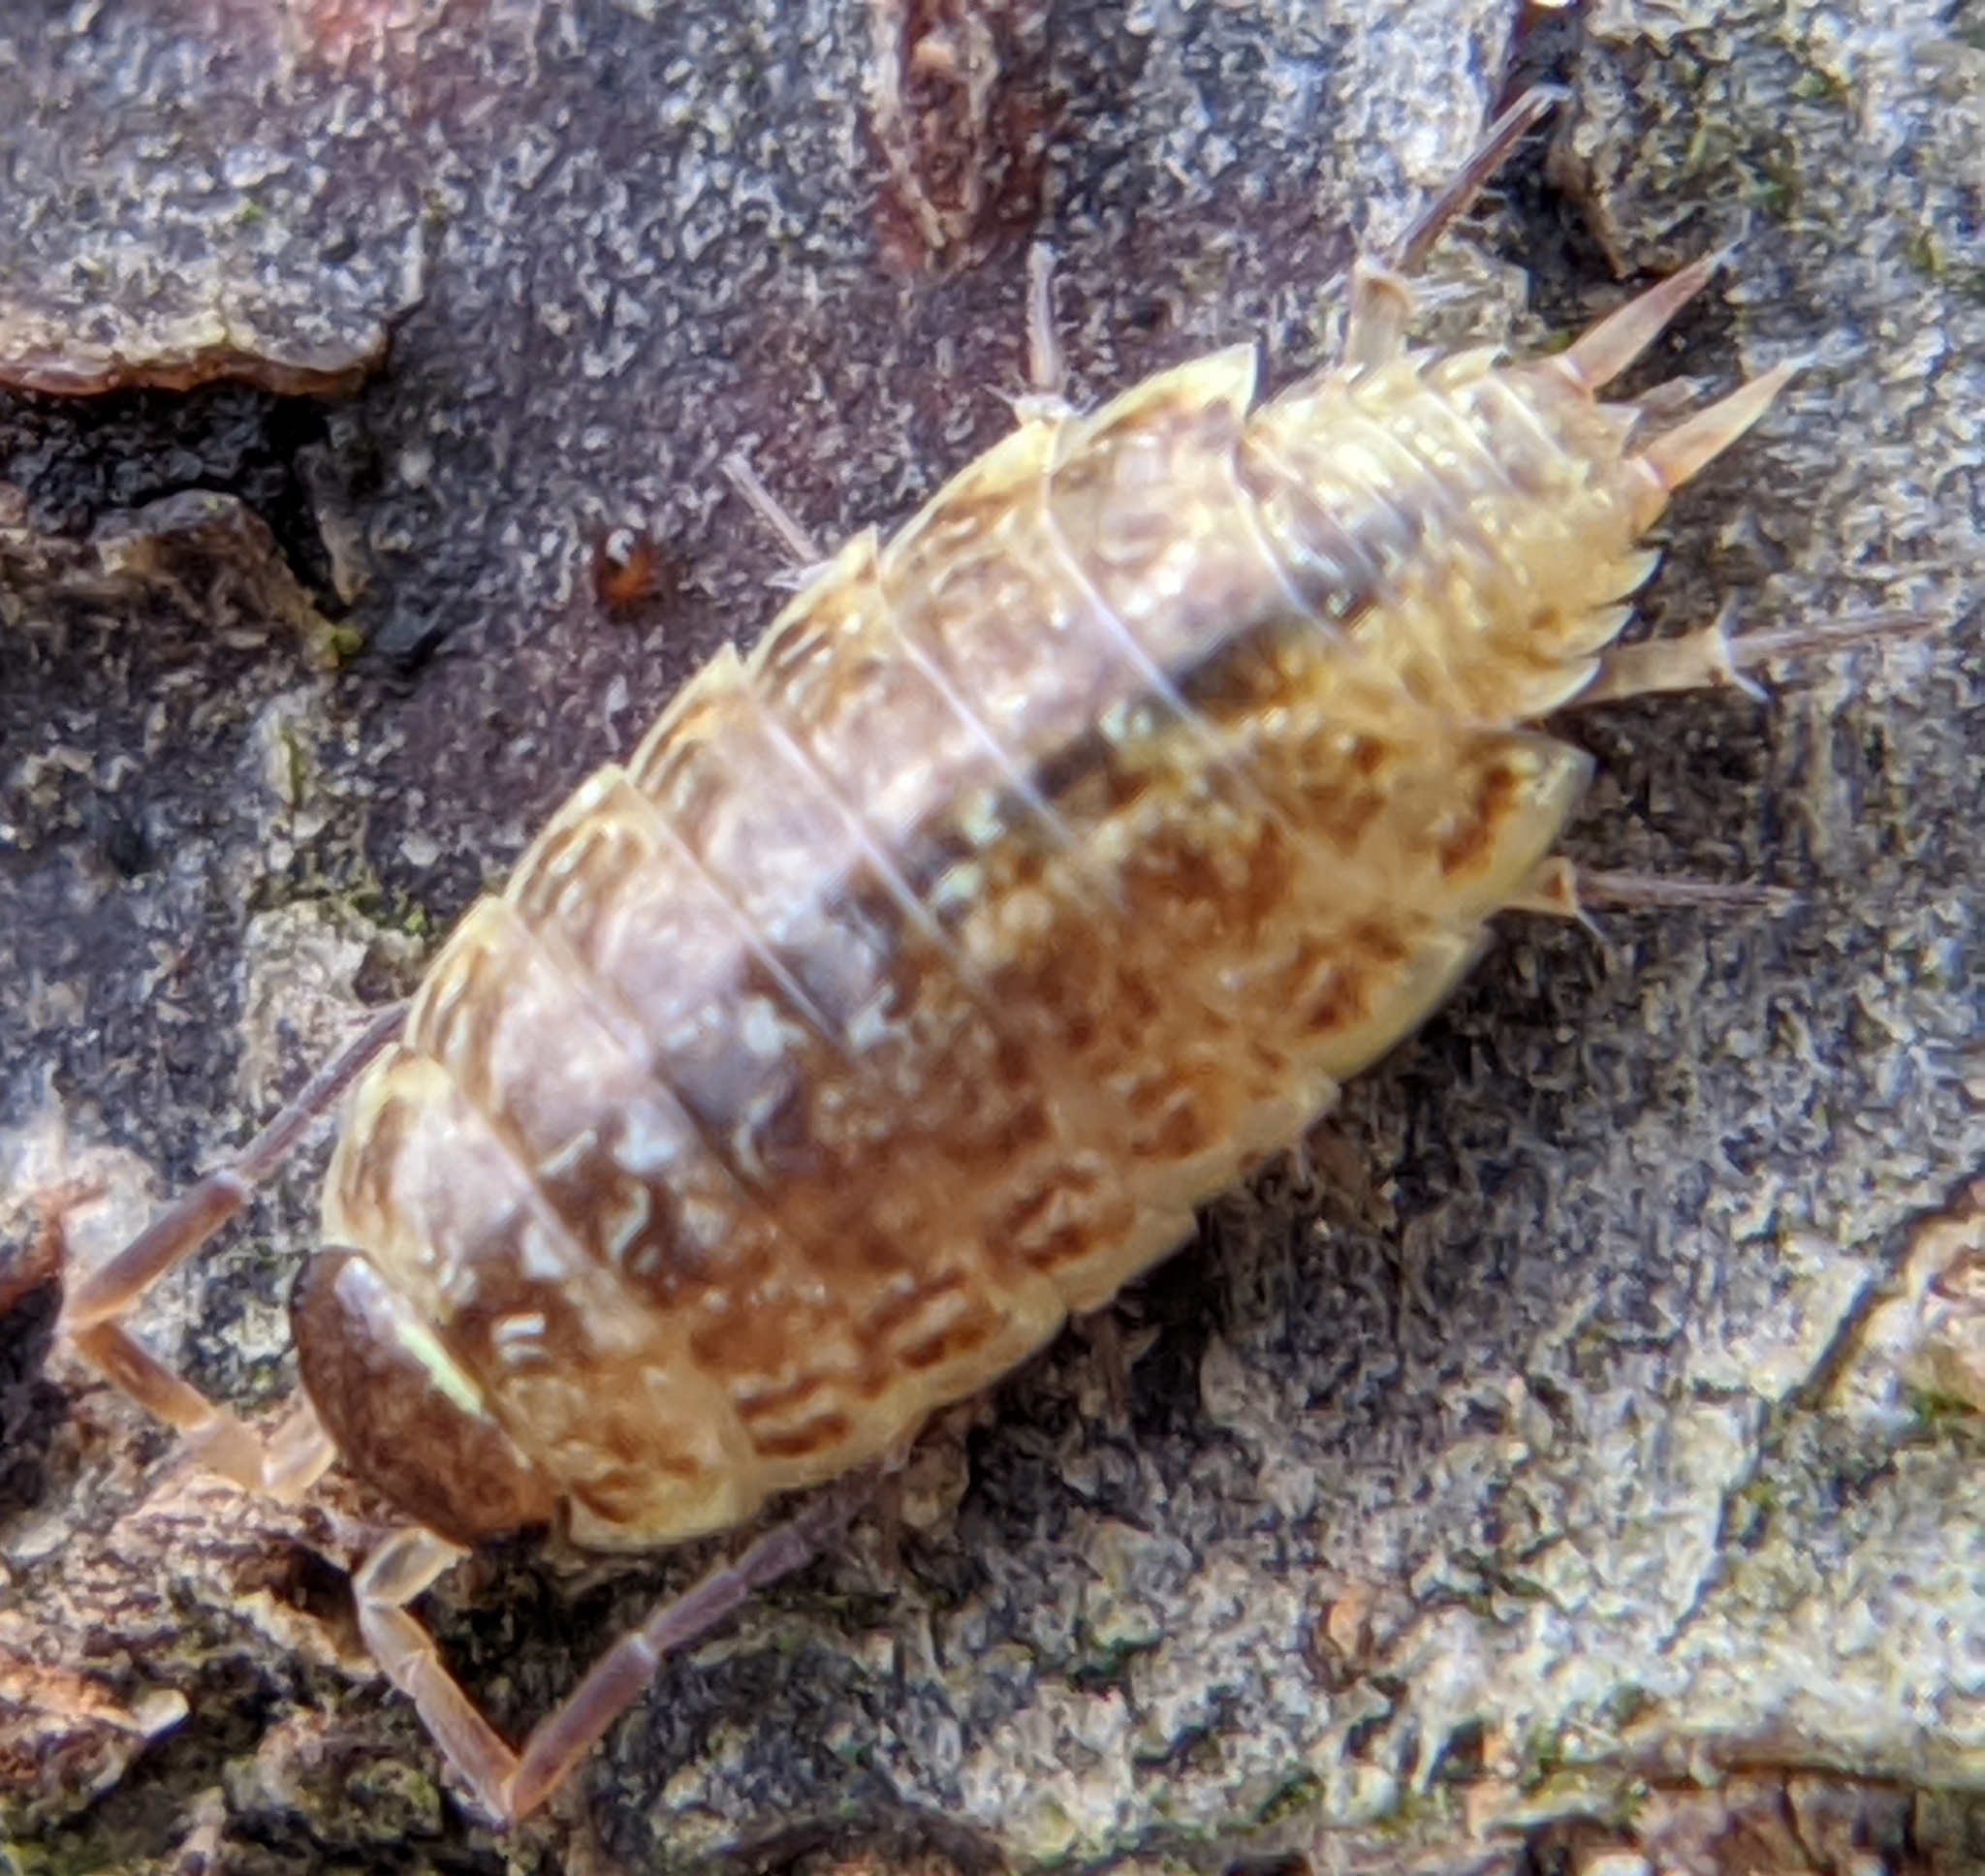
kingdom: Animalia
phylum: Arthropoda
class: Malacostraca
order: Isopoda
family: Philosciidae
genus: Philoscia
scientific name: Philoscia muscorum
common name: Common striped woodlouse
